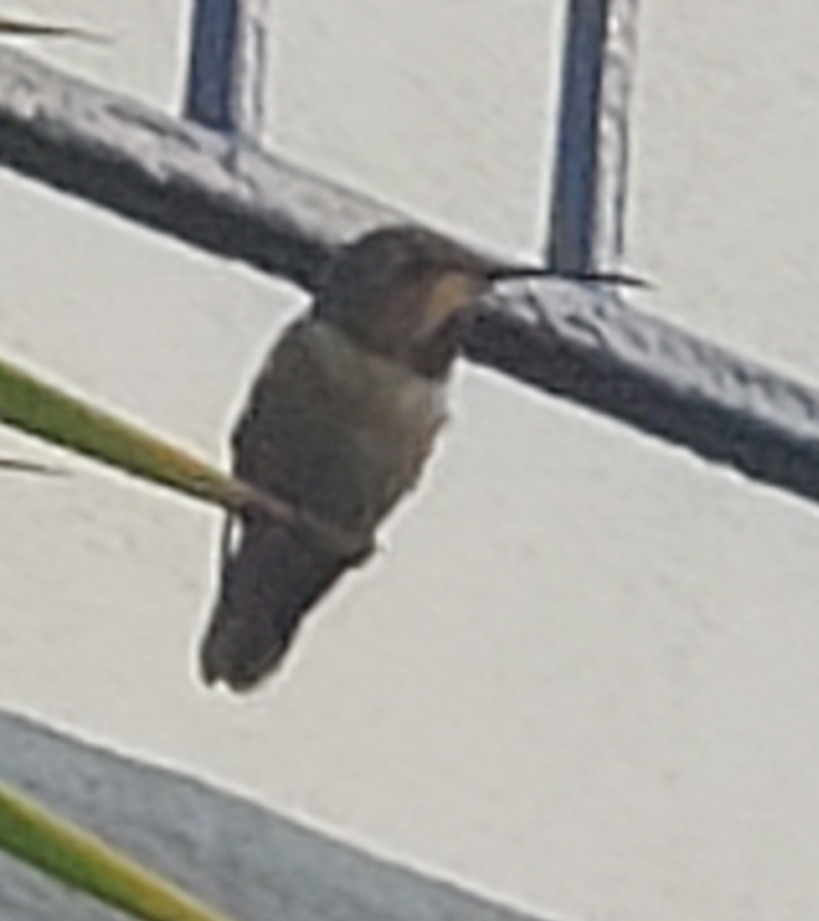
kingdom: Animalia
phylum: Chordata
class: Aves
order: Apodiformes
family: Trochilidae
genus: Selasphorus
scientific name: Selasphorus sasin
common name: Allen's hummingbird
